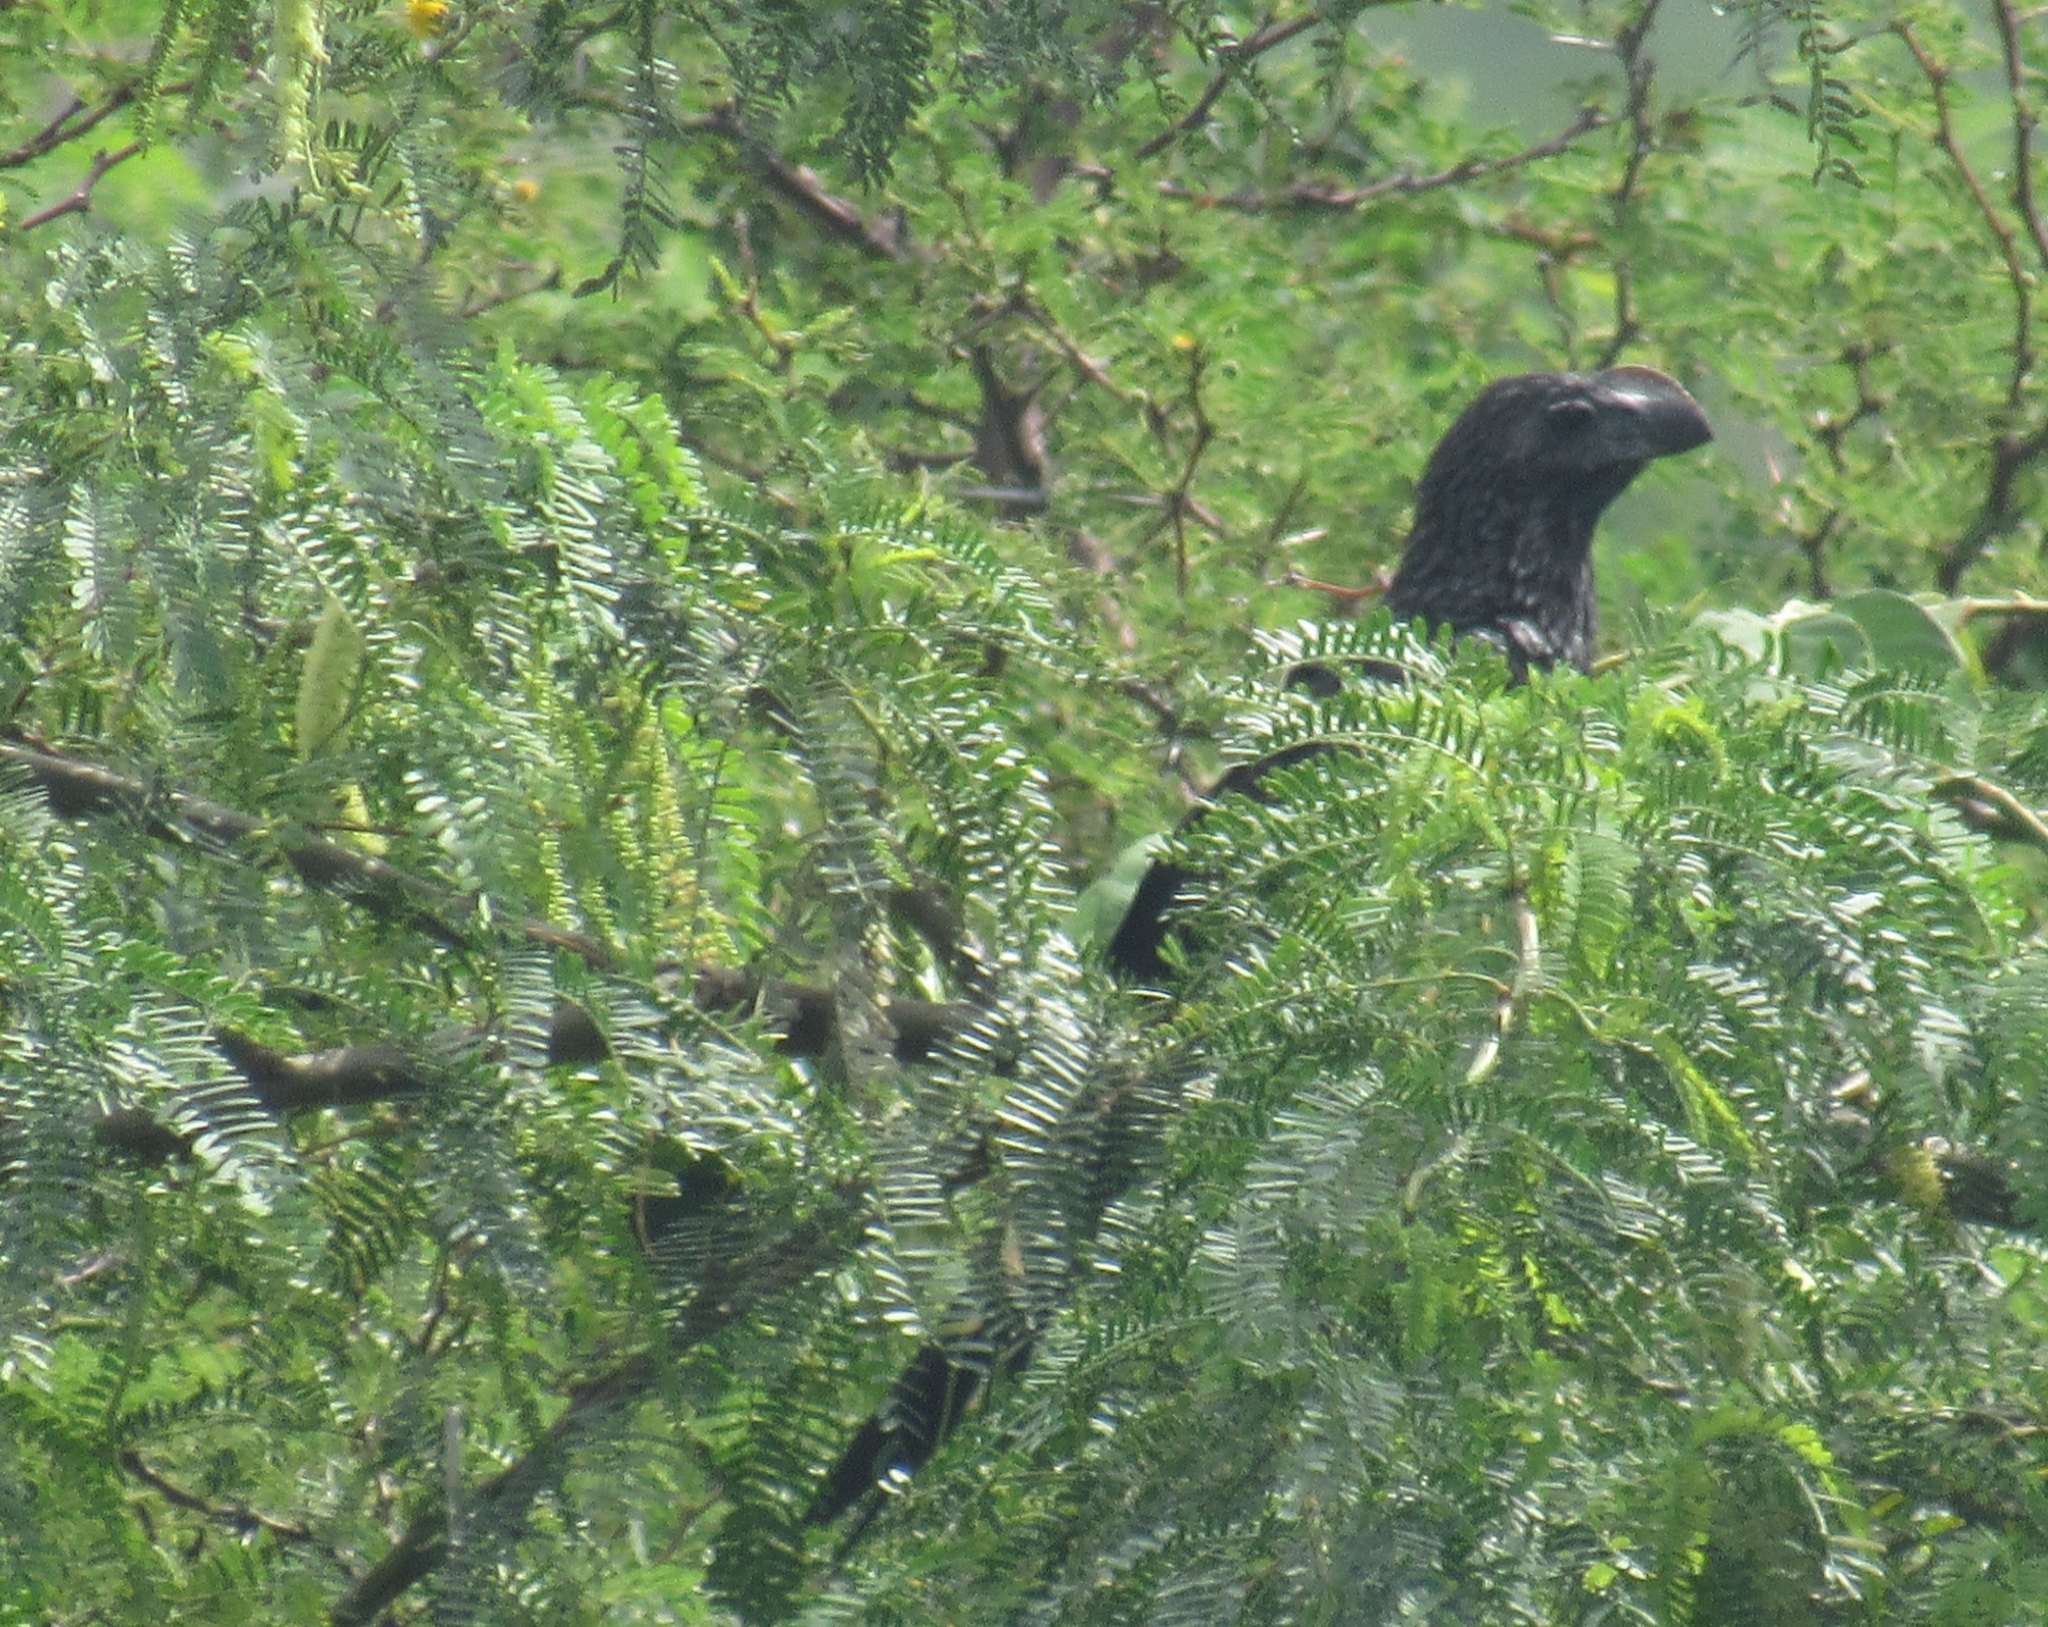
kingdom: Animalia
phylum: Chordata
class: Aves
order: Cuculiformes
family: Cuculidae
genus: Crotophaga
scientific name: Crotophaga ani
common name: Smooth-billed ani
